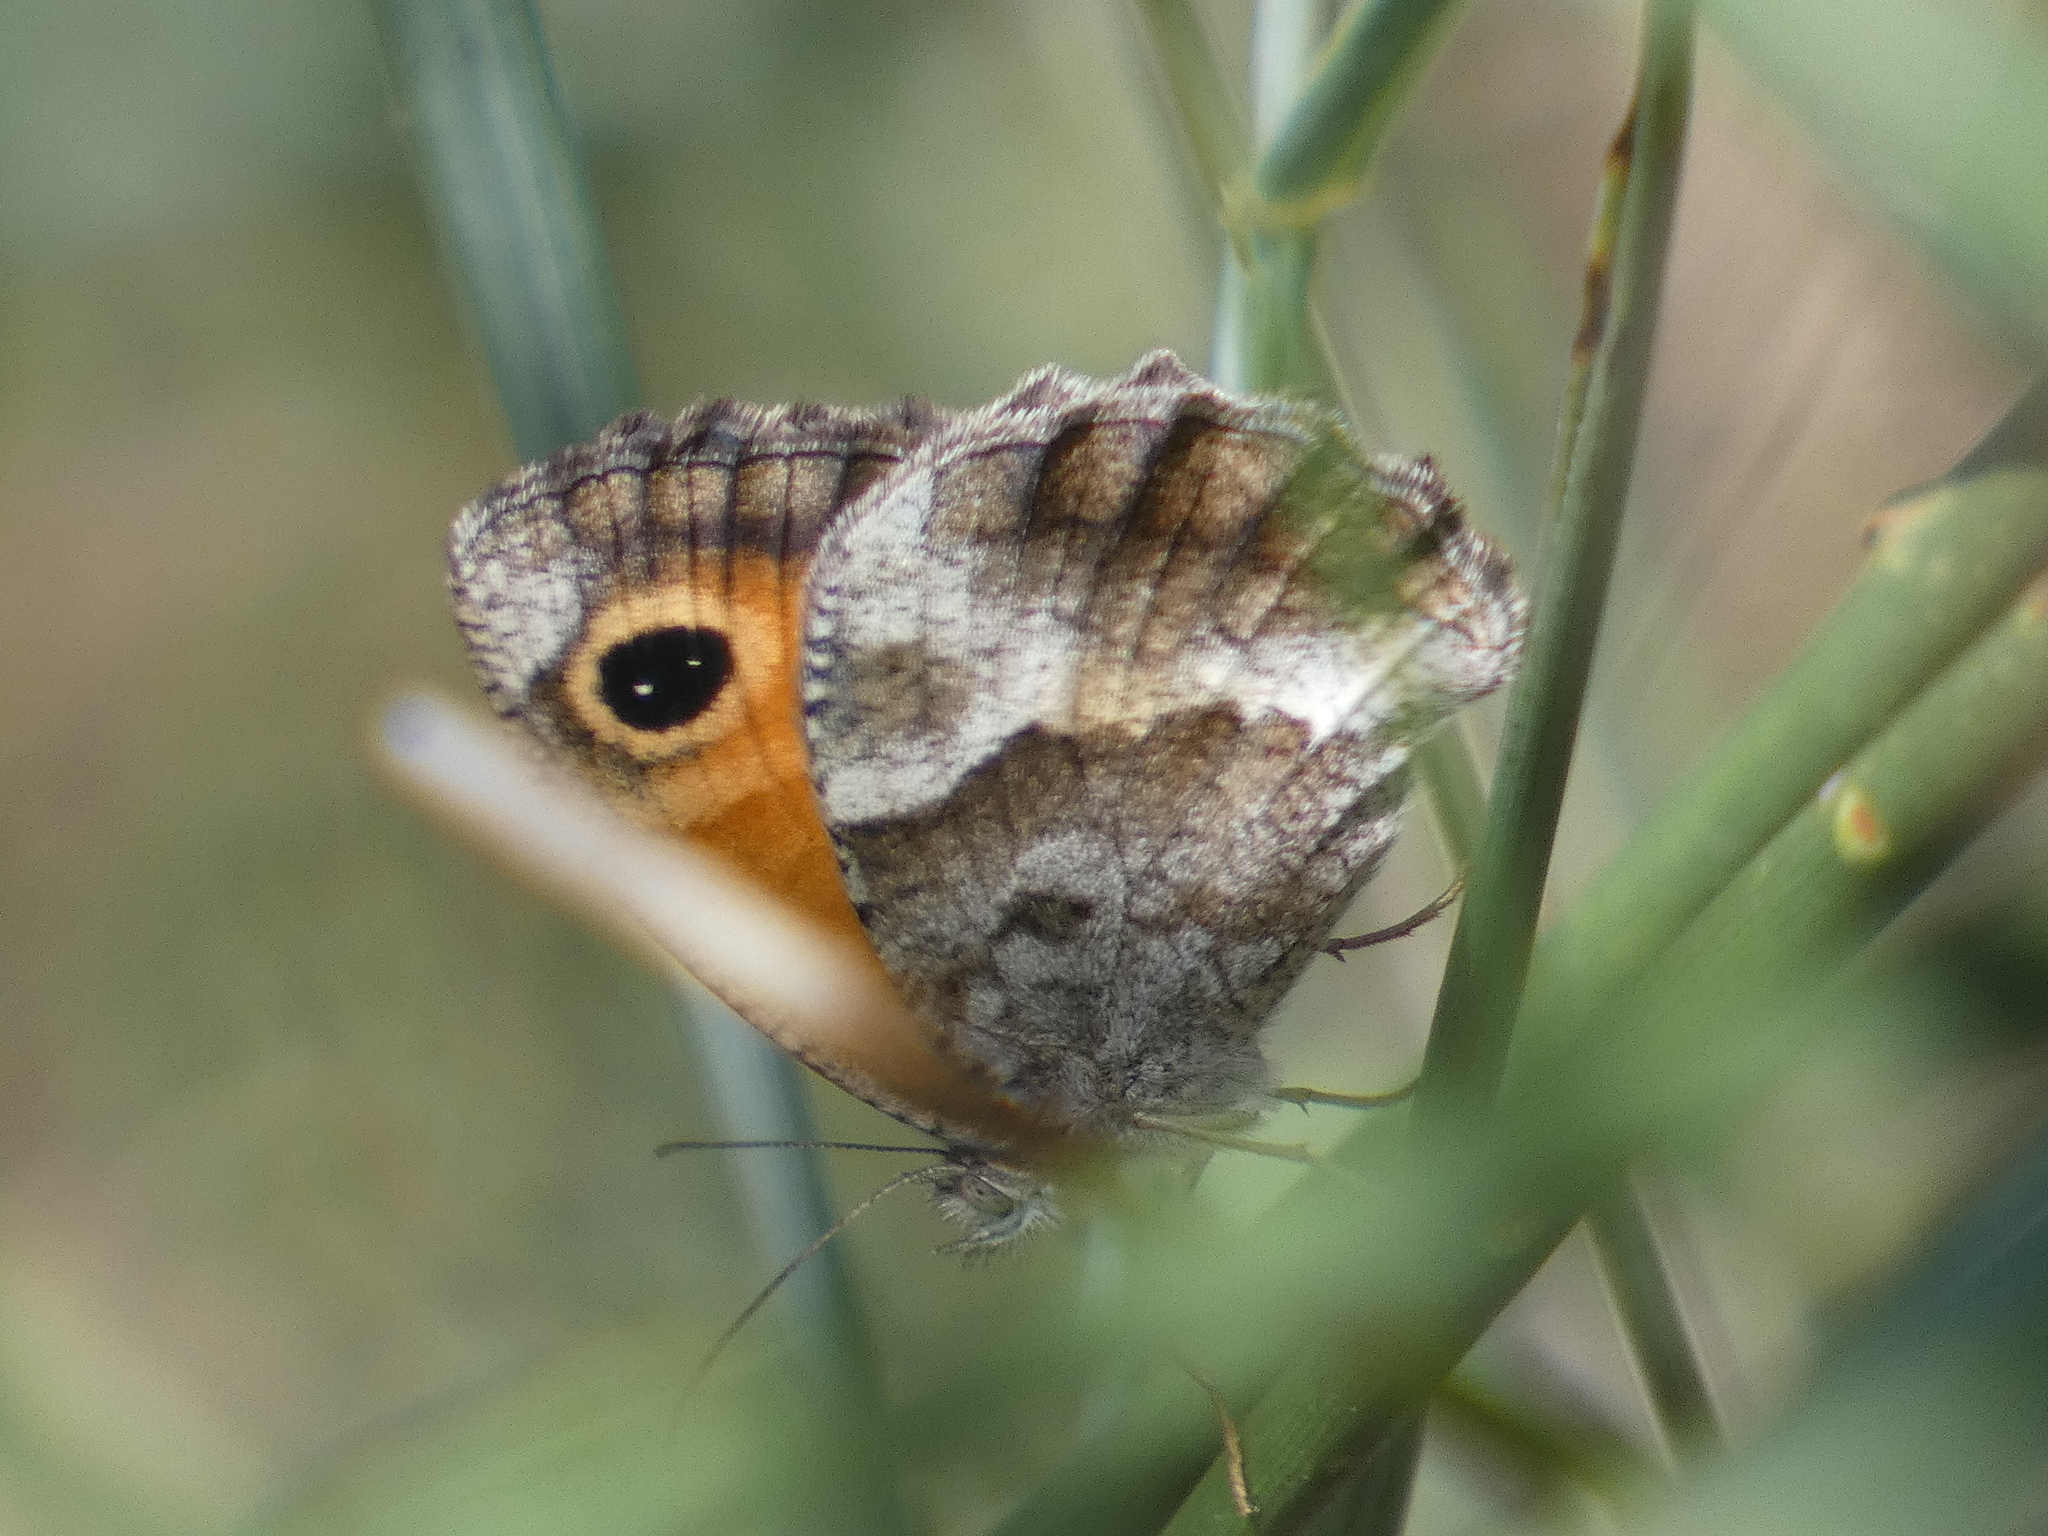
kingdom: Animalia
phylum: Arthropoda
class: Insecta
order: Lepidoptera
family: Nymphalidae
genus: Pyronia
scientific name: Pyronia cecilia
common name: Southern gatekeeper
